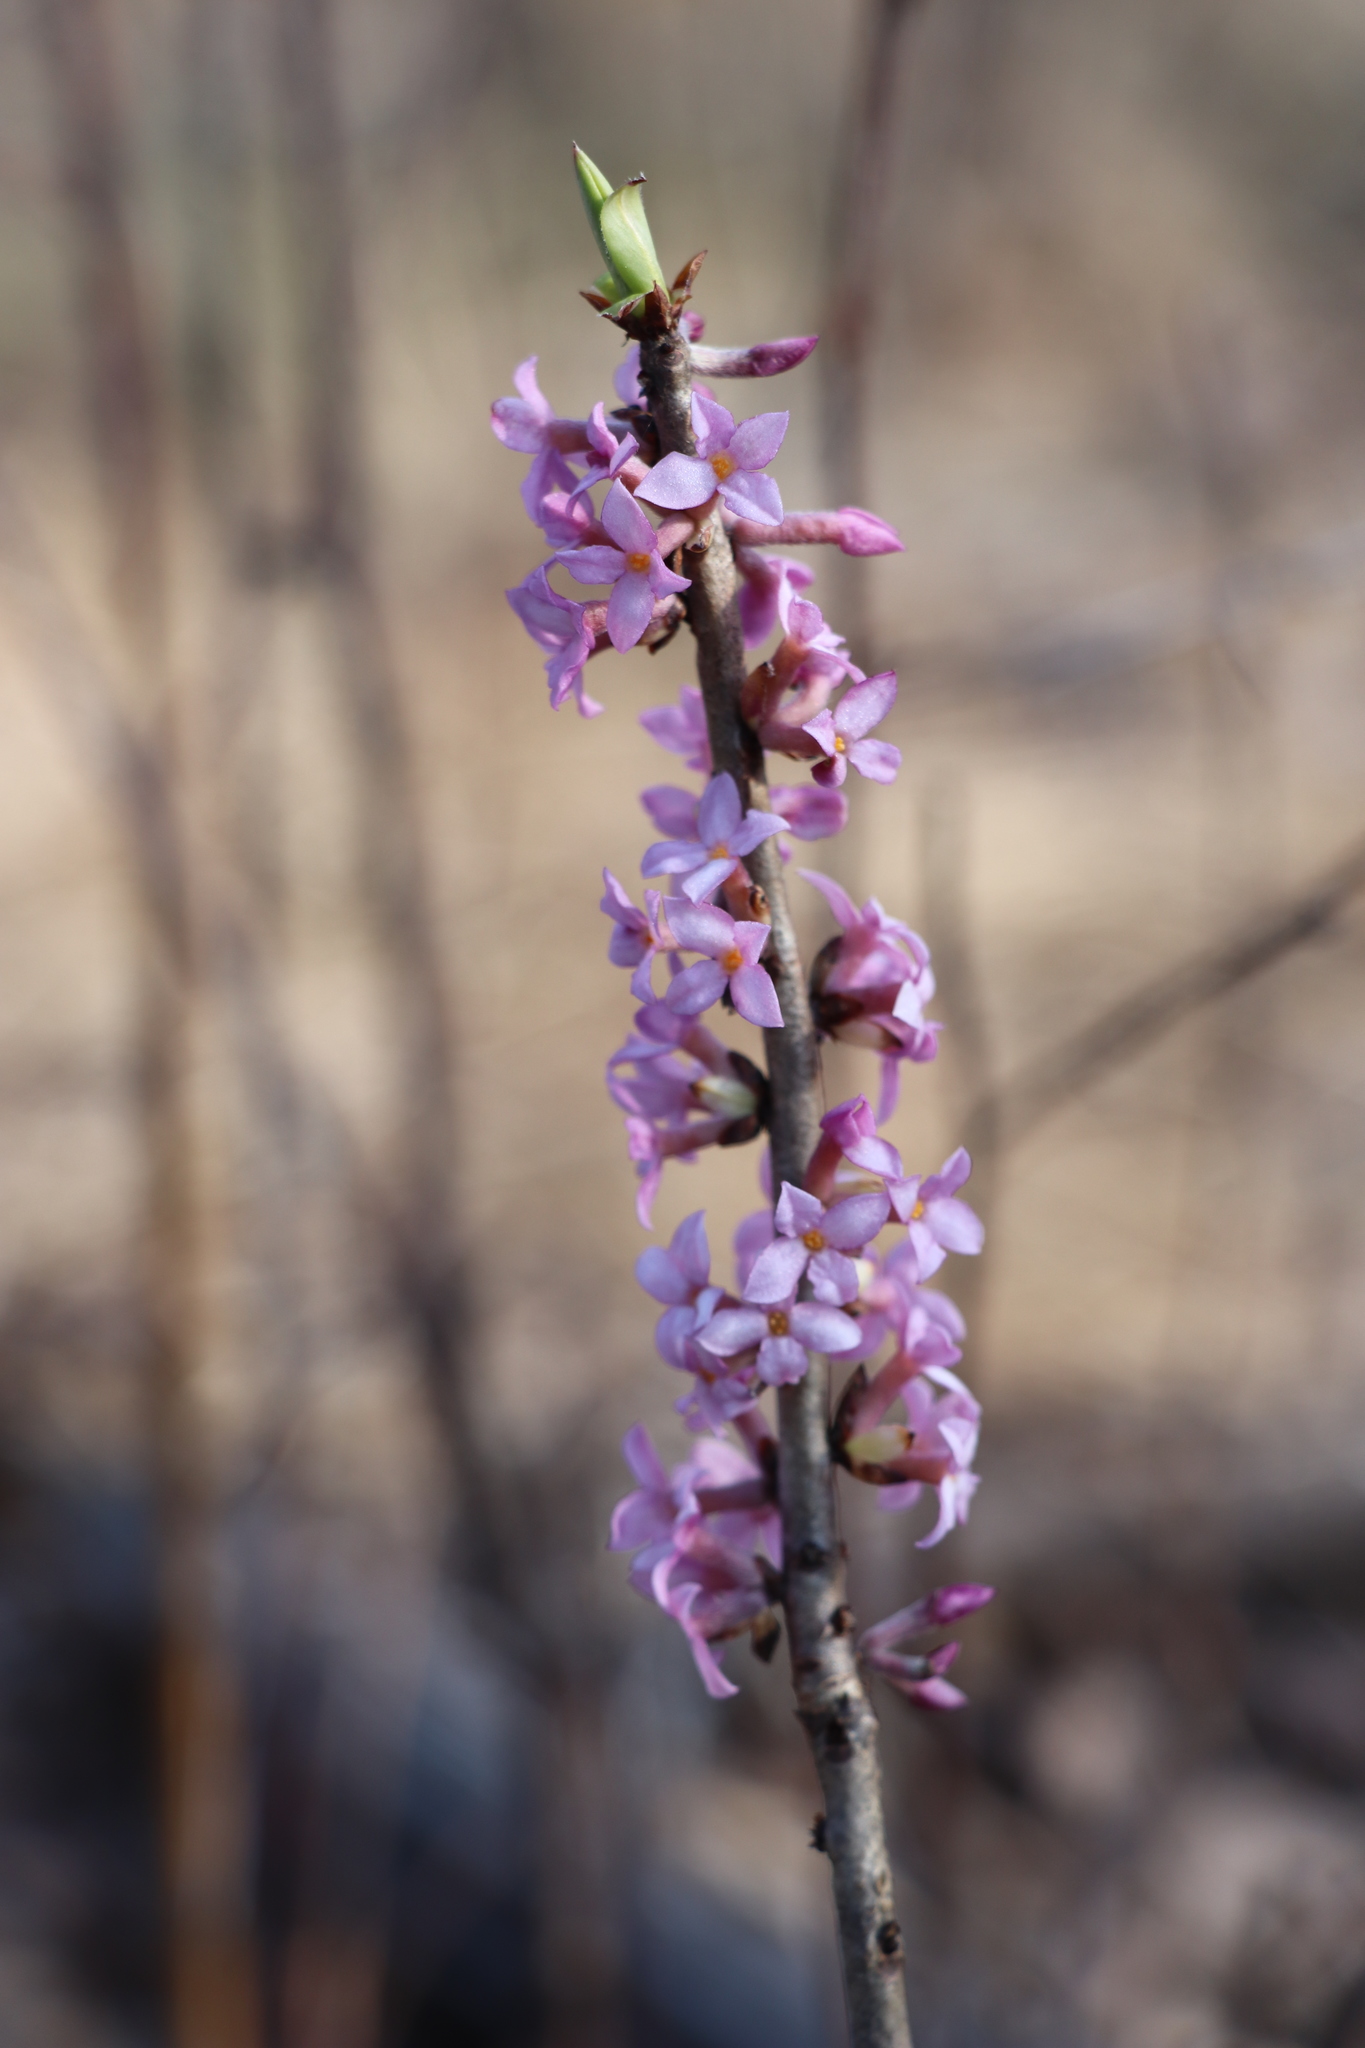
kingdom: Plantae
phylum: Tracheophyta
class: Magnoliopsida
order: Malvales
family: Thymelaeaceae
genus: Daphne
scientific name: Daphne mezereum
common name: Mezereon
